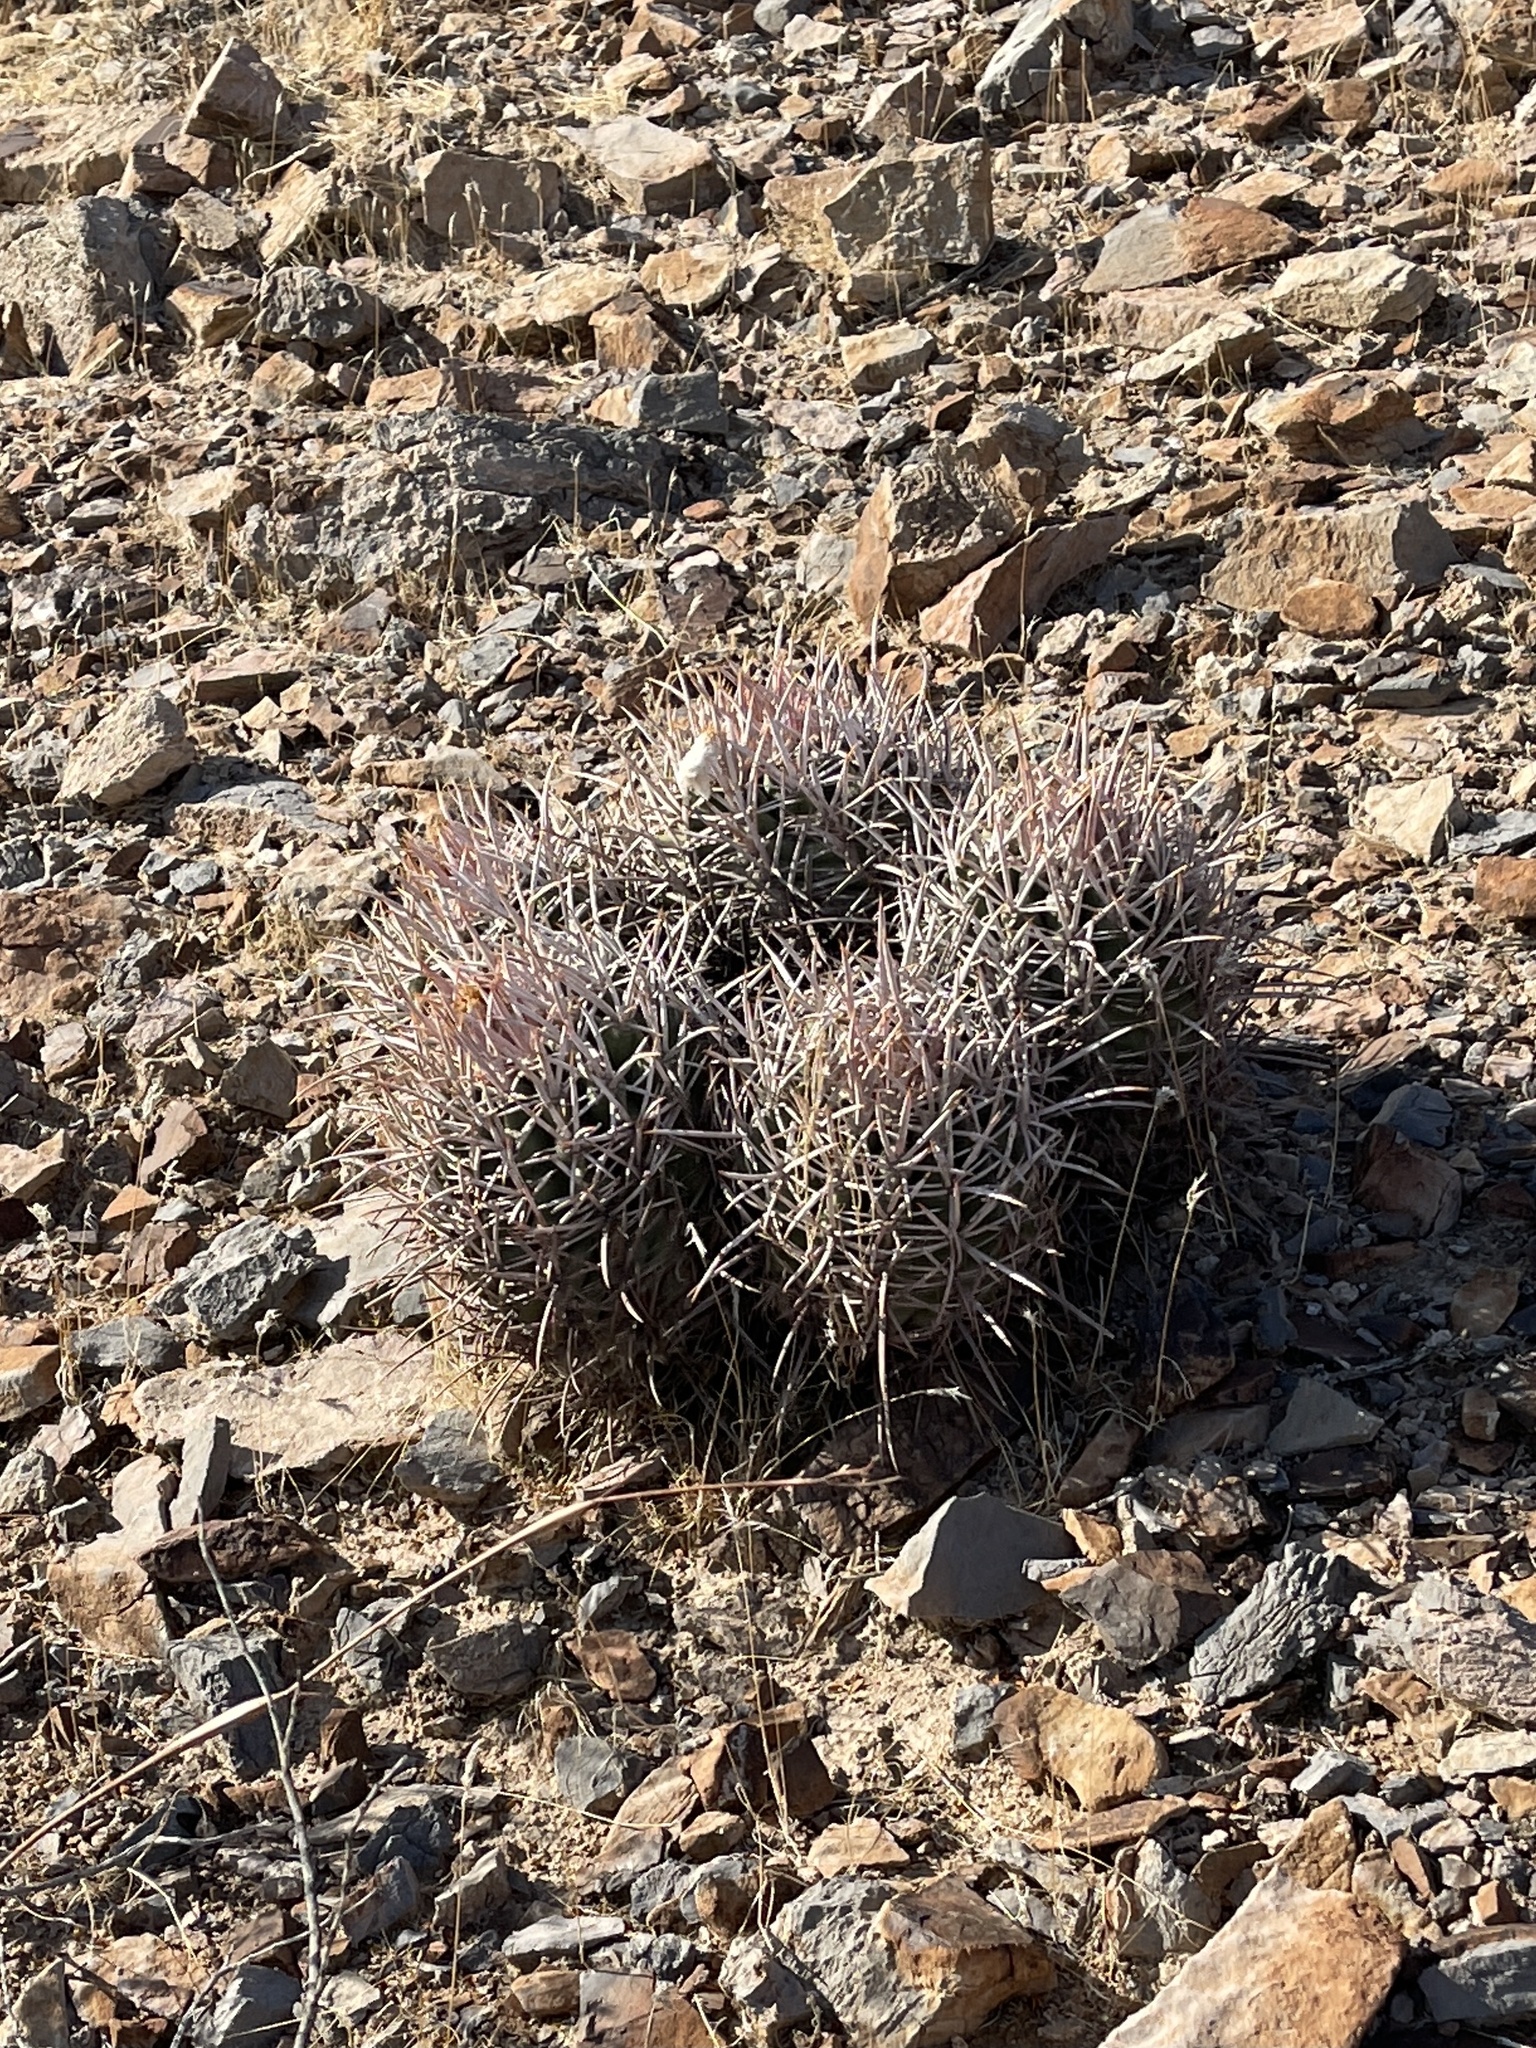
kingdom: Plantae
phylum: Tracheophyta
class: Magnoliopsida
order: Caryophyllales
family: Cactaceae
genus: Echinocactus
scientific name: Echinocactus polycephalus
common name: Cottontop cactus
